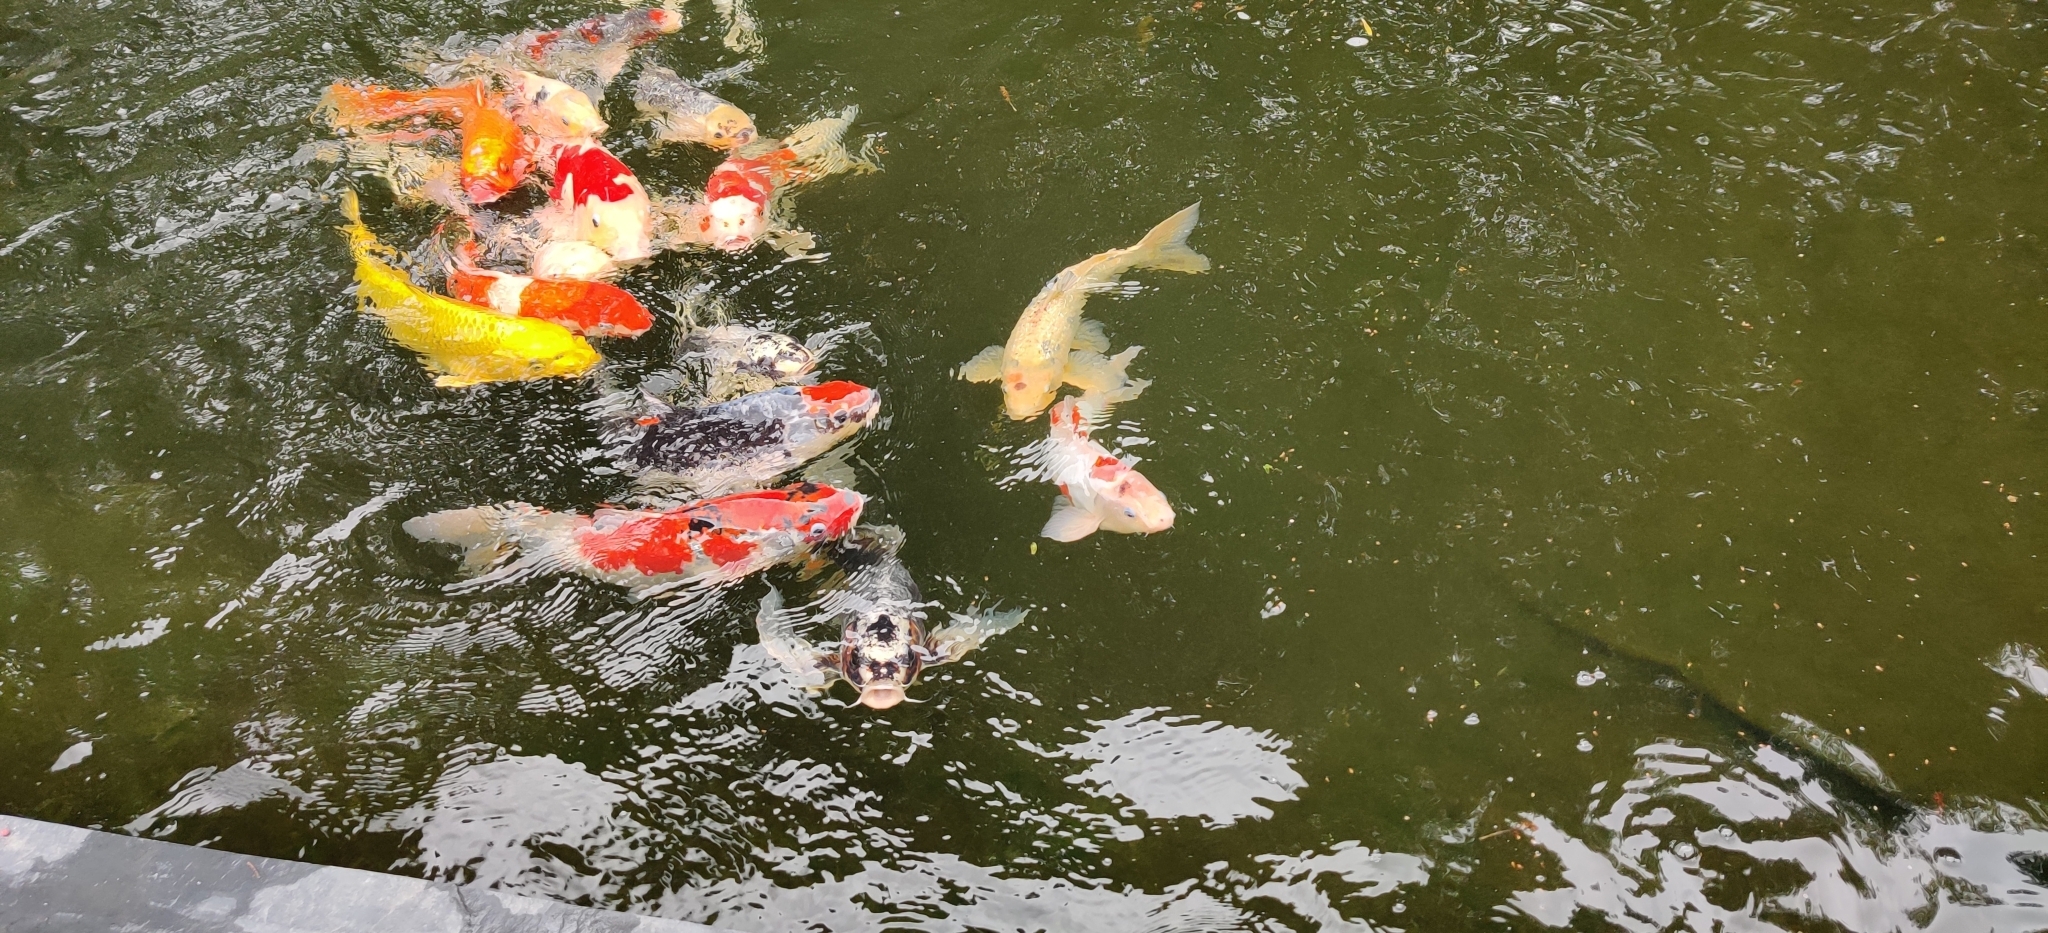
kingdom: Animalia
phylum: Chordata
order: Cypriniformes
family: Cyprinidae
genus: Cyprinus
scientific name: Cyprinus rubrofuscus
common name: Koi
